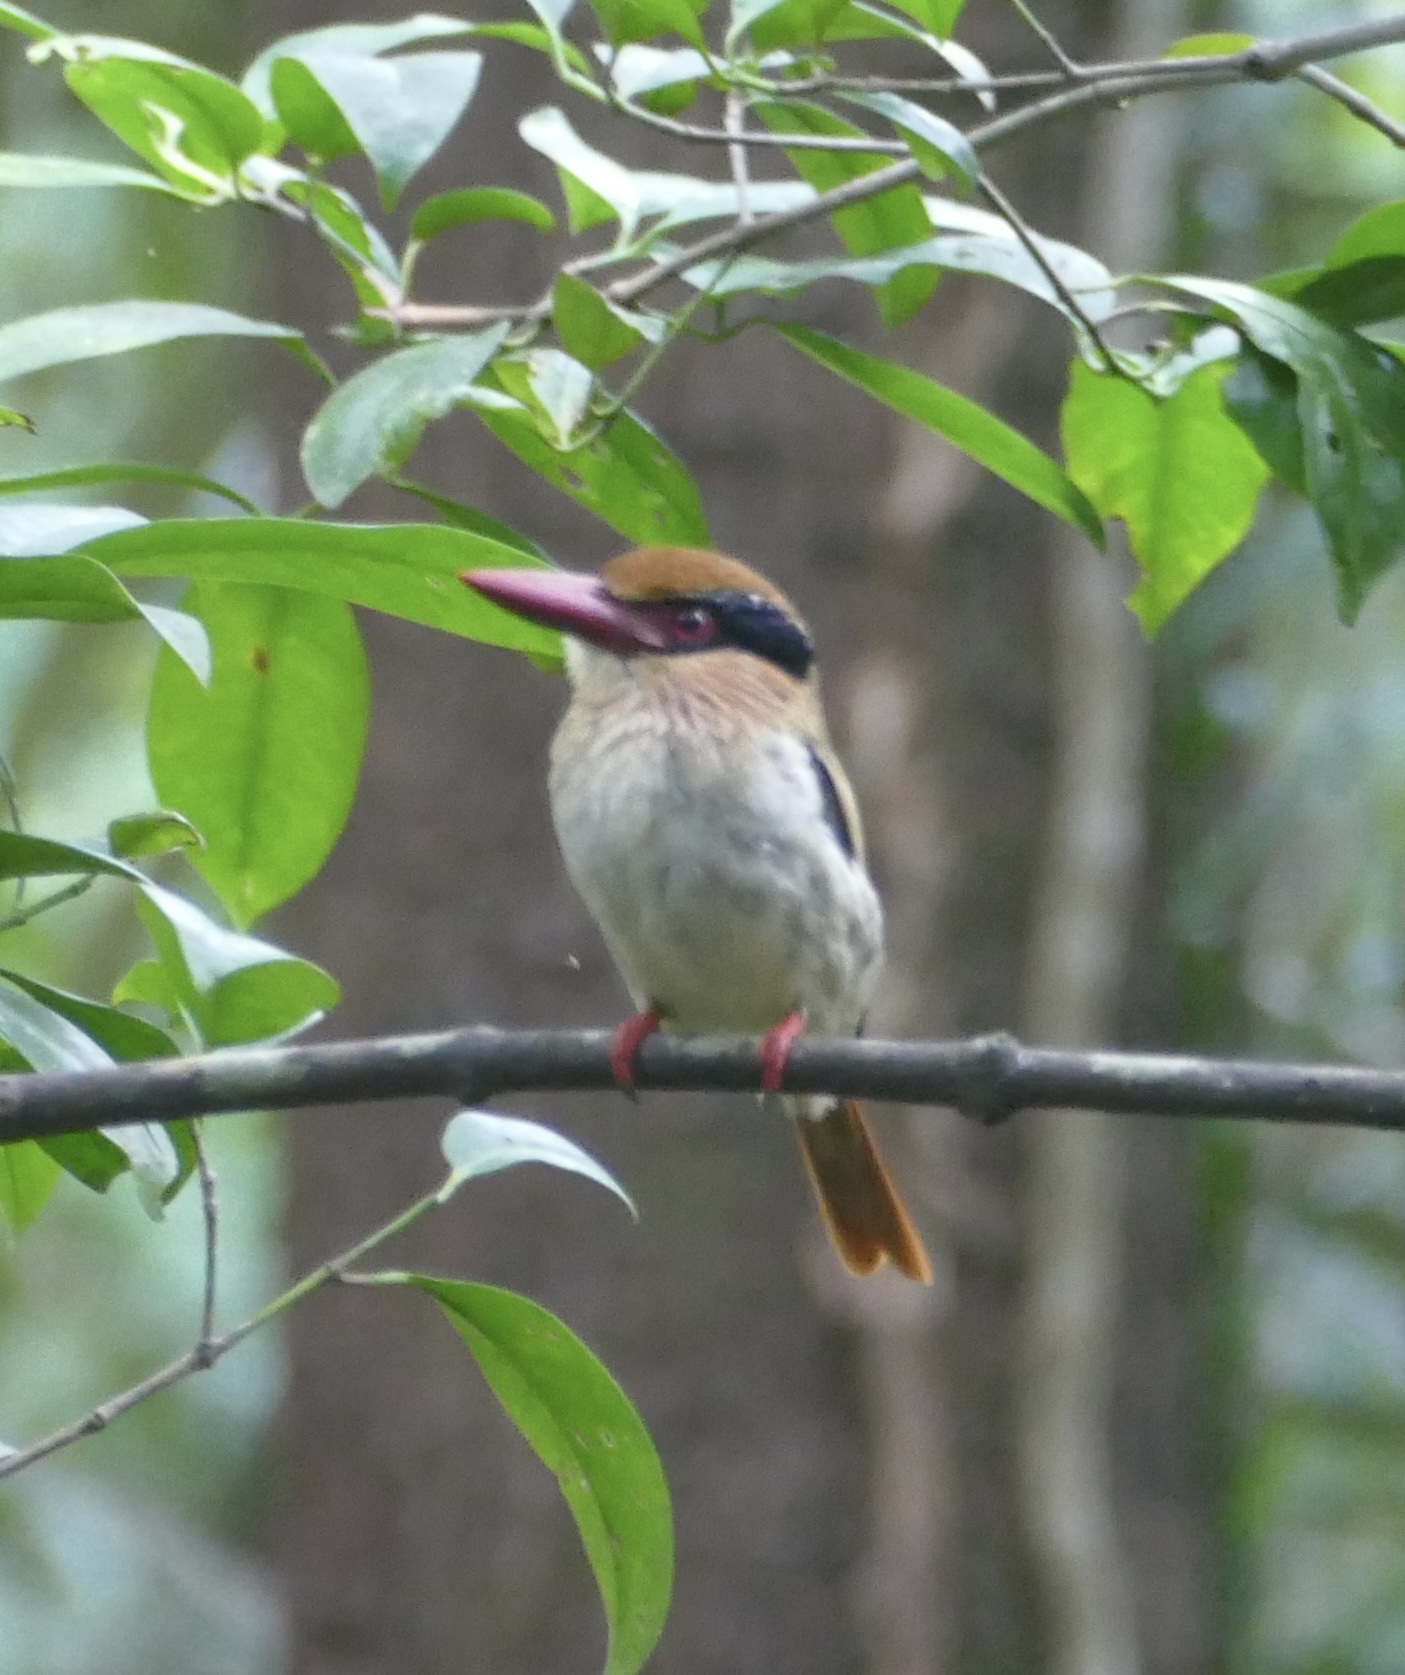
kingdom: Animalia
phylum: Chordata
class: Aves
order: Coraciiformes
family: Alcedinidae
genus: Cittura
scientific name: Cittura cyanotis
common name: Lilac kingfisher
